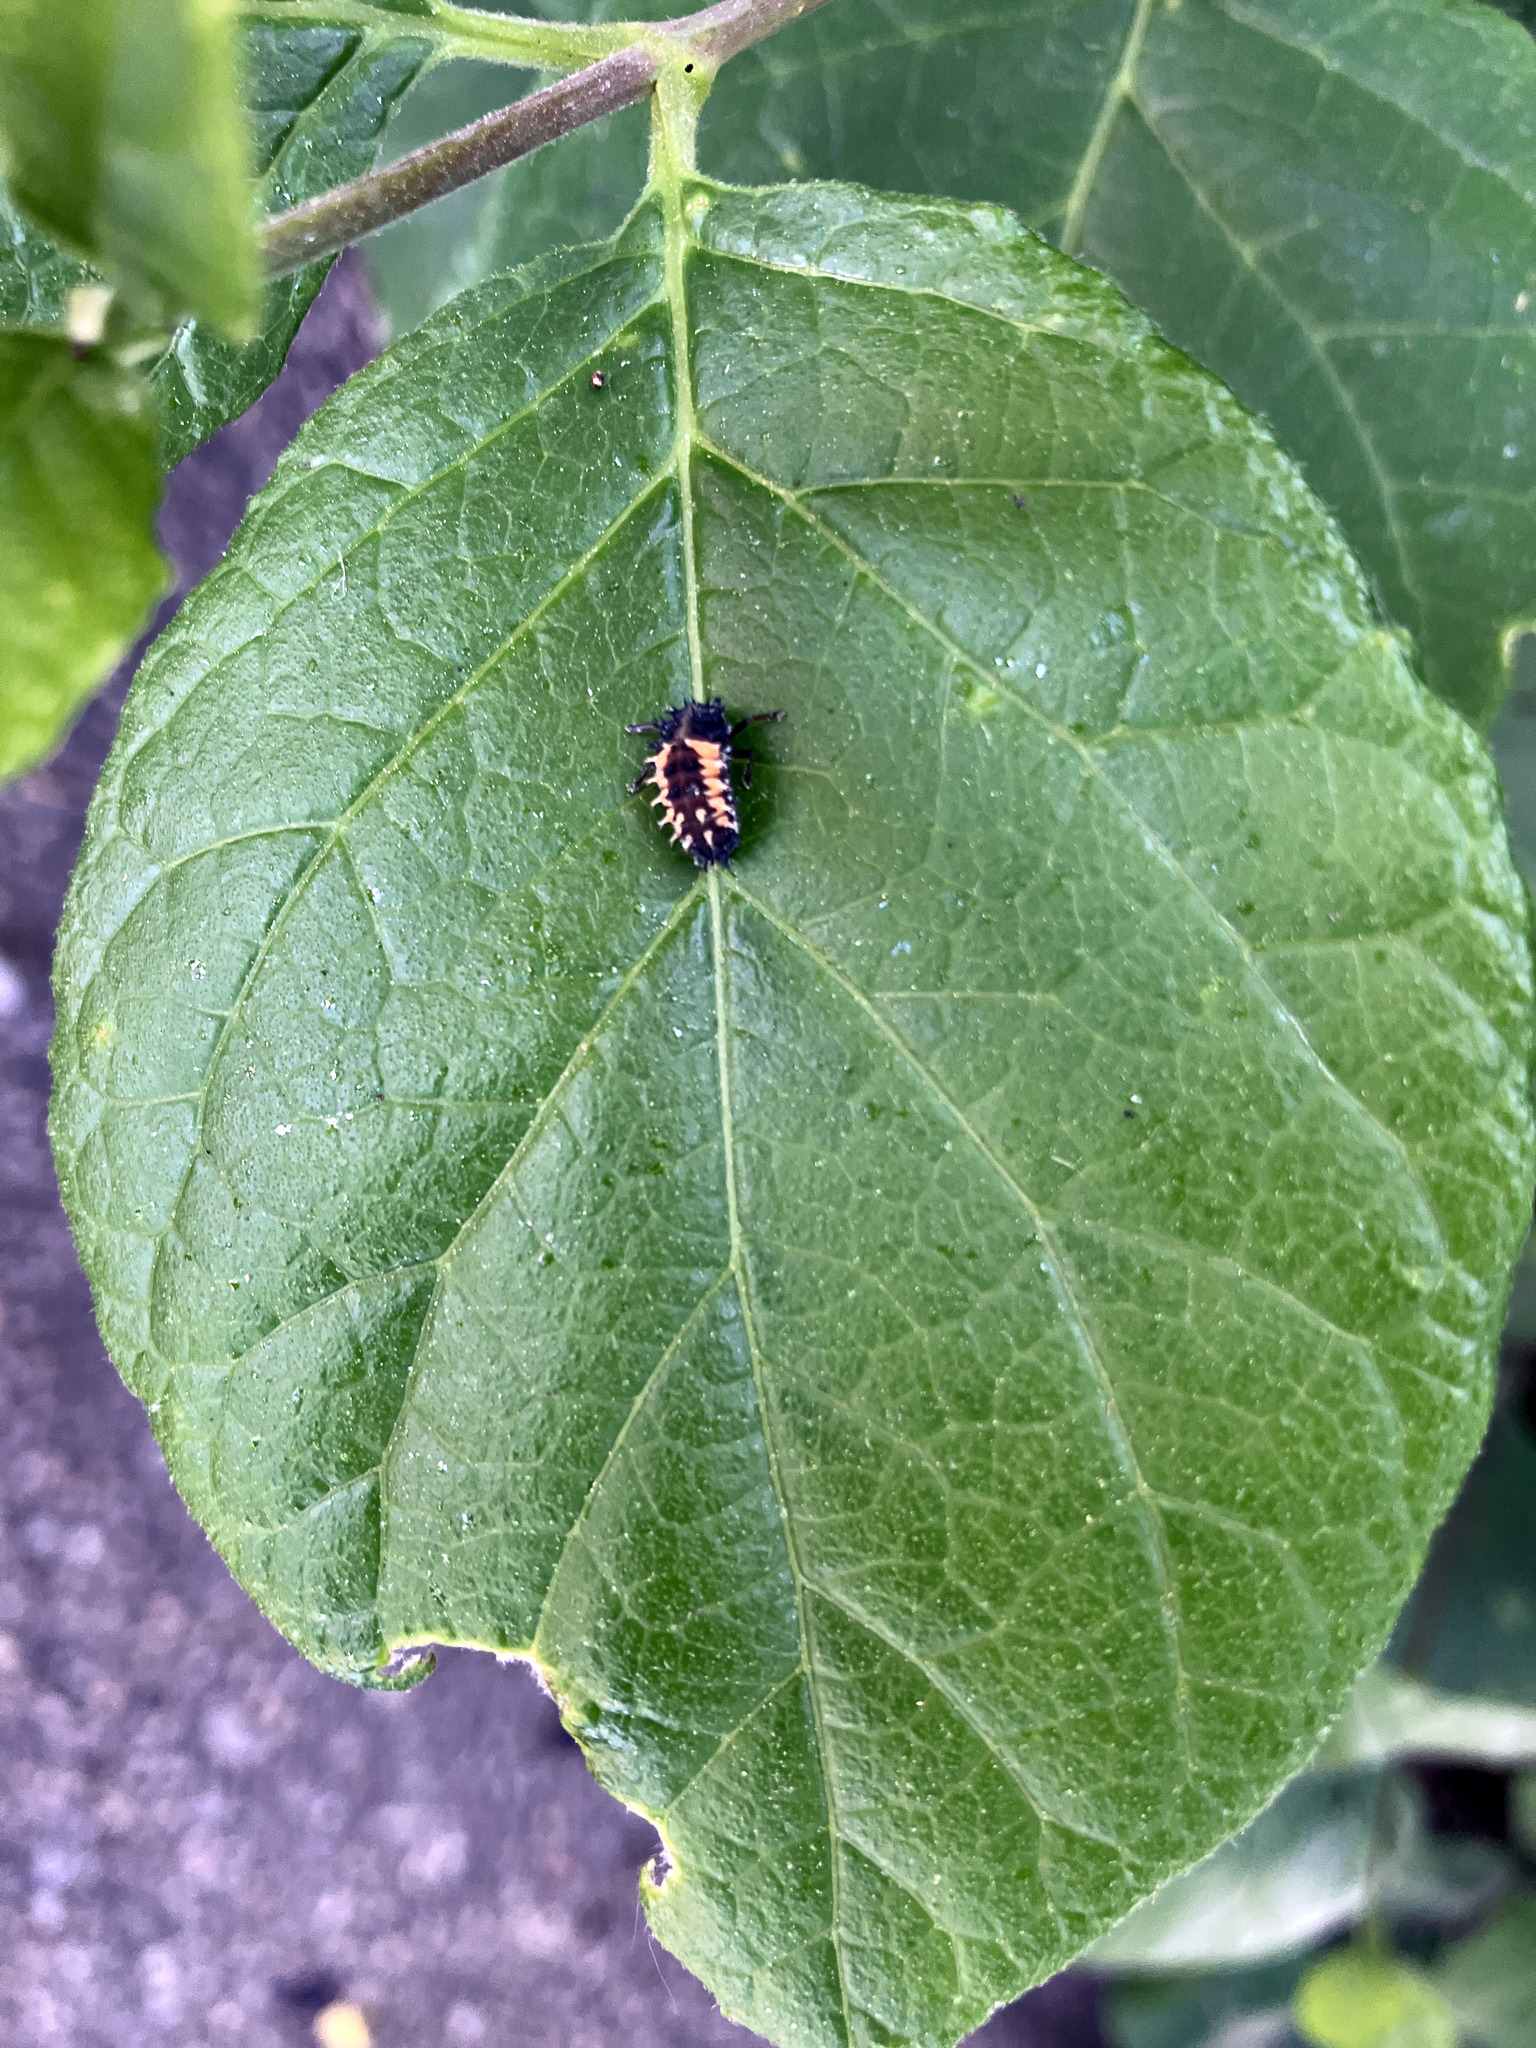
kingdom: Animalia
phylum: Arthropoda
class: Insecta
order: Coleoptera
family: Coccinellidae
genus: Harmonia
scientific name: Harmonia axyridis
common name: Harlequin ladybird
